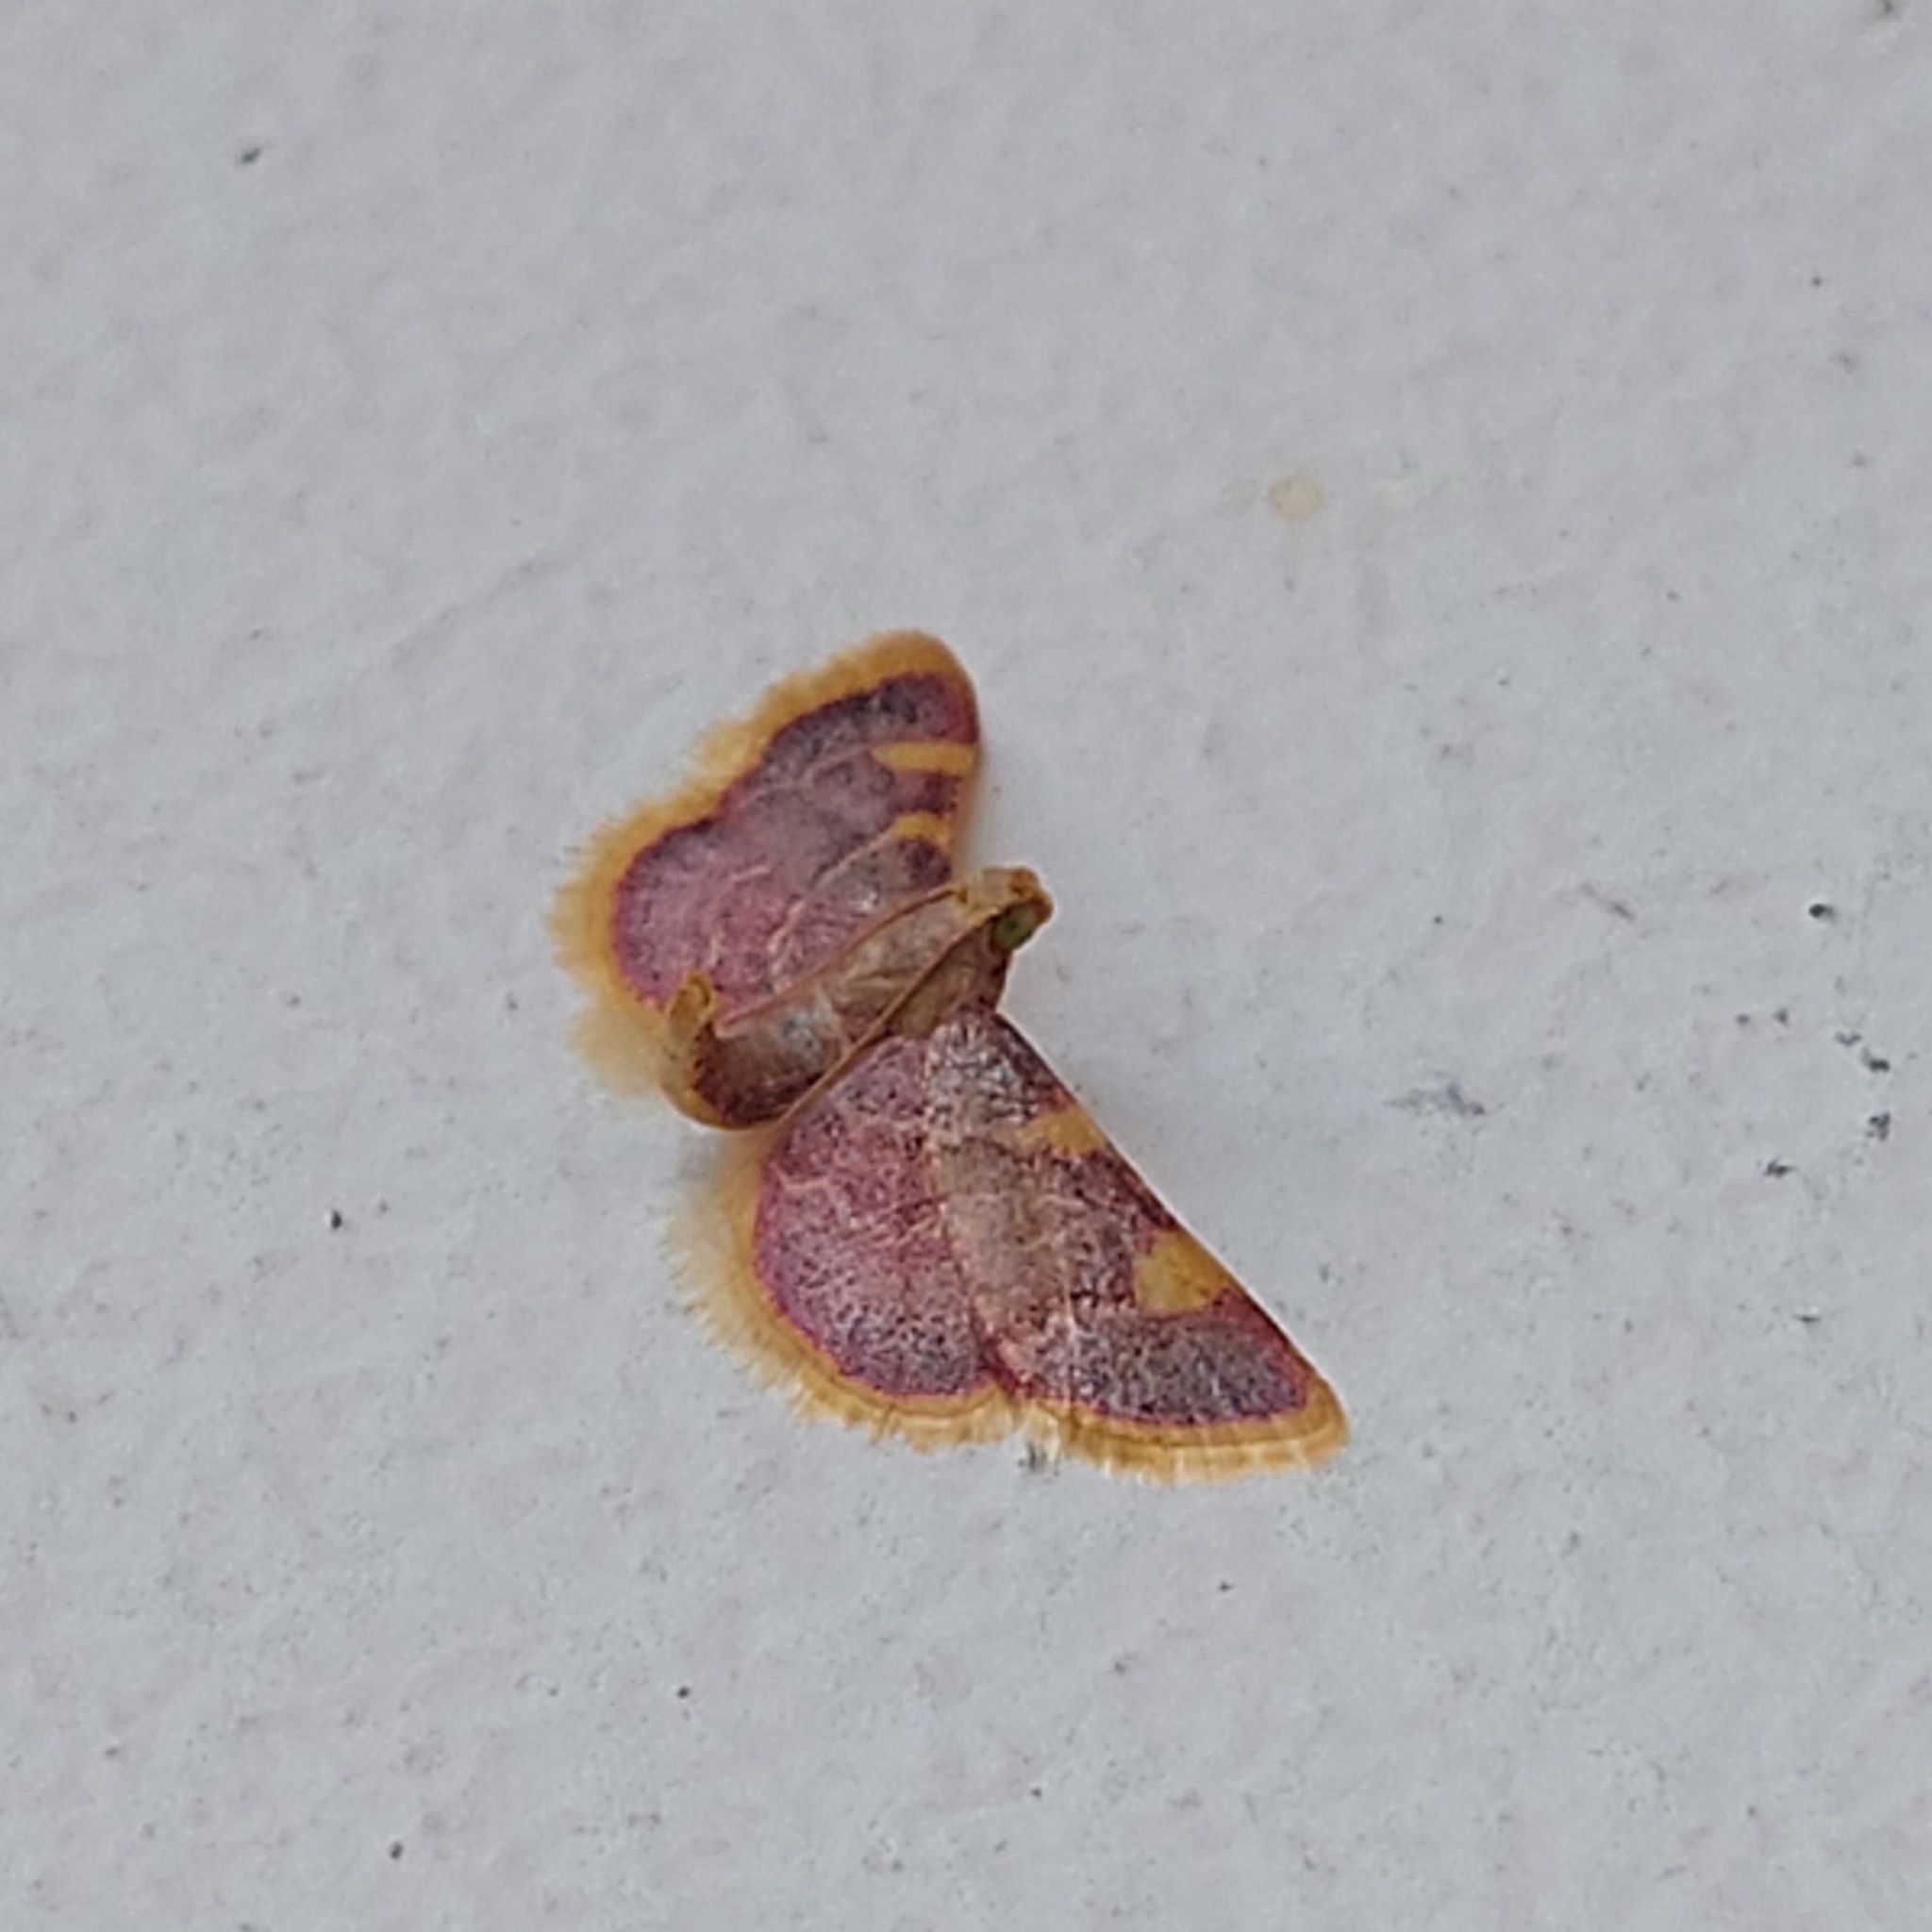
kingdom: Animalia
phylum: Arthropoda
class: Insecta
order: Lepidoptera
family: Pyralidae
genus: Hypsopygia
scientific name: Hypsopygia costalis
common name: Gold triangle
